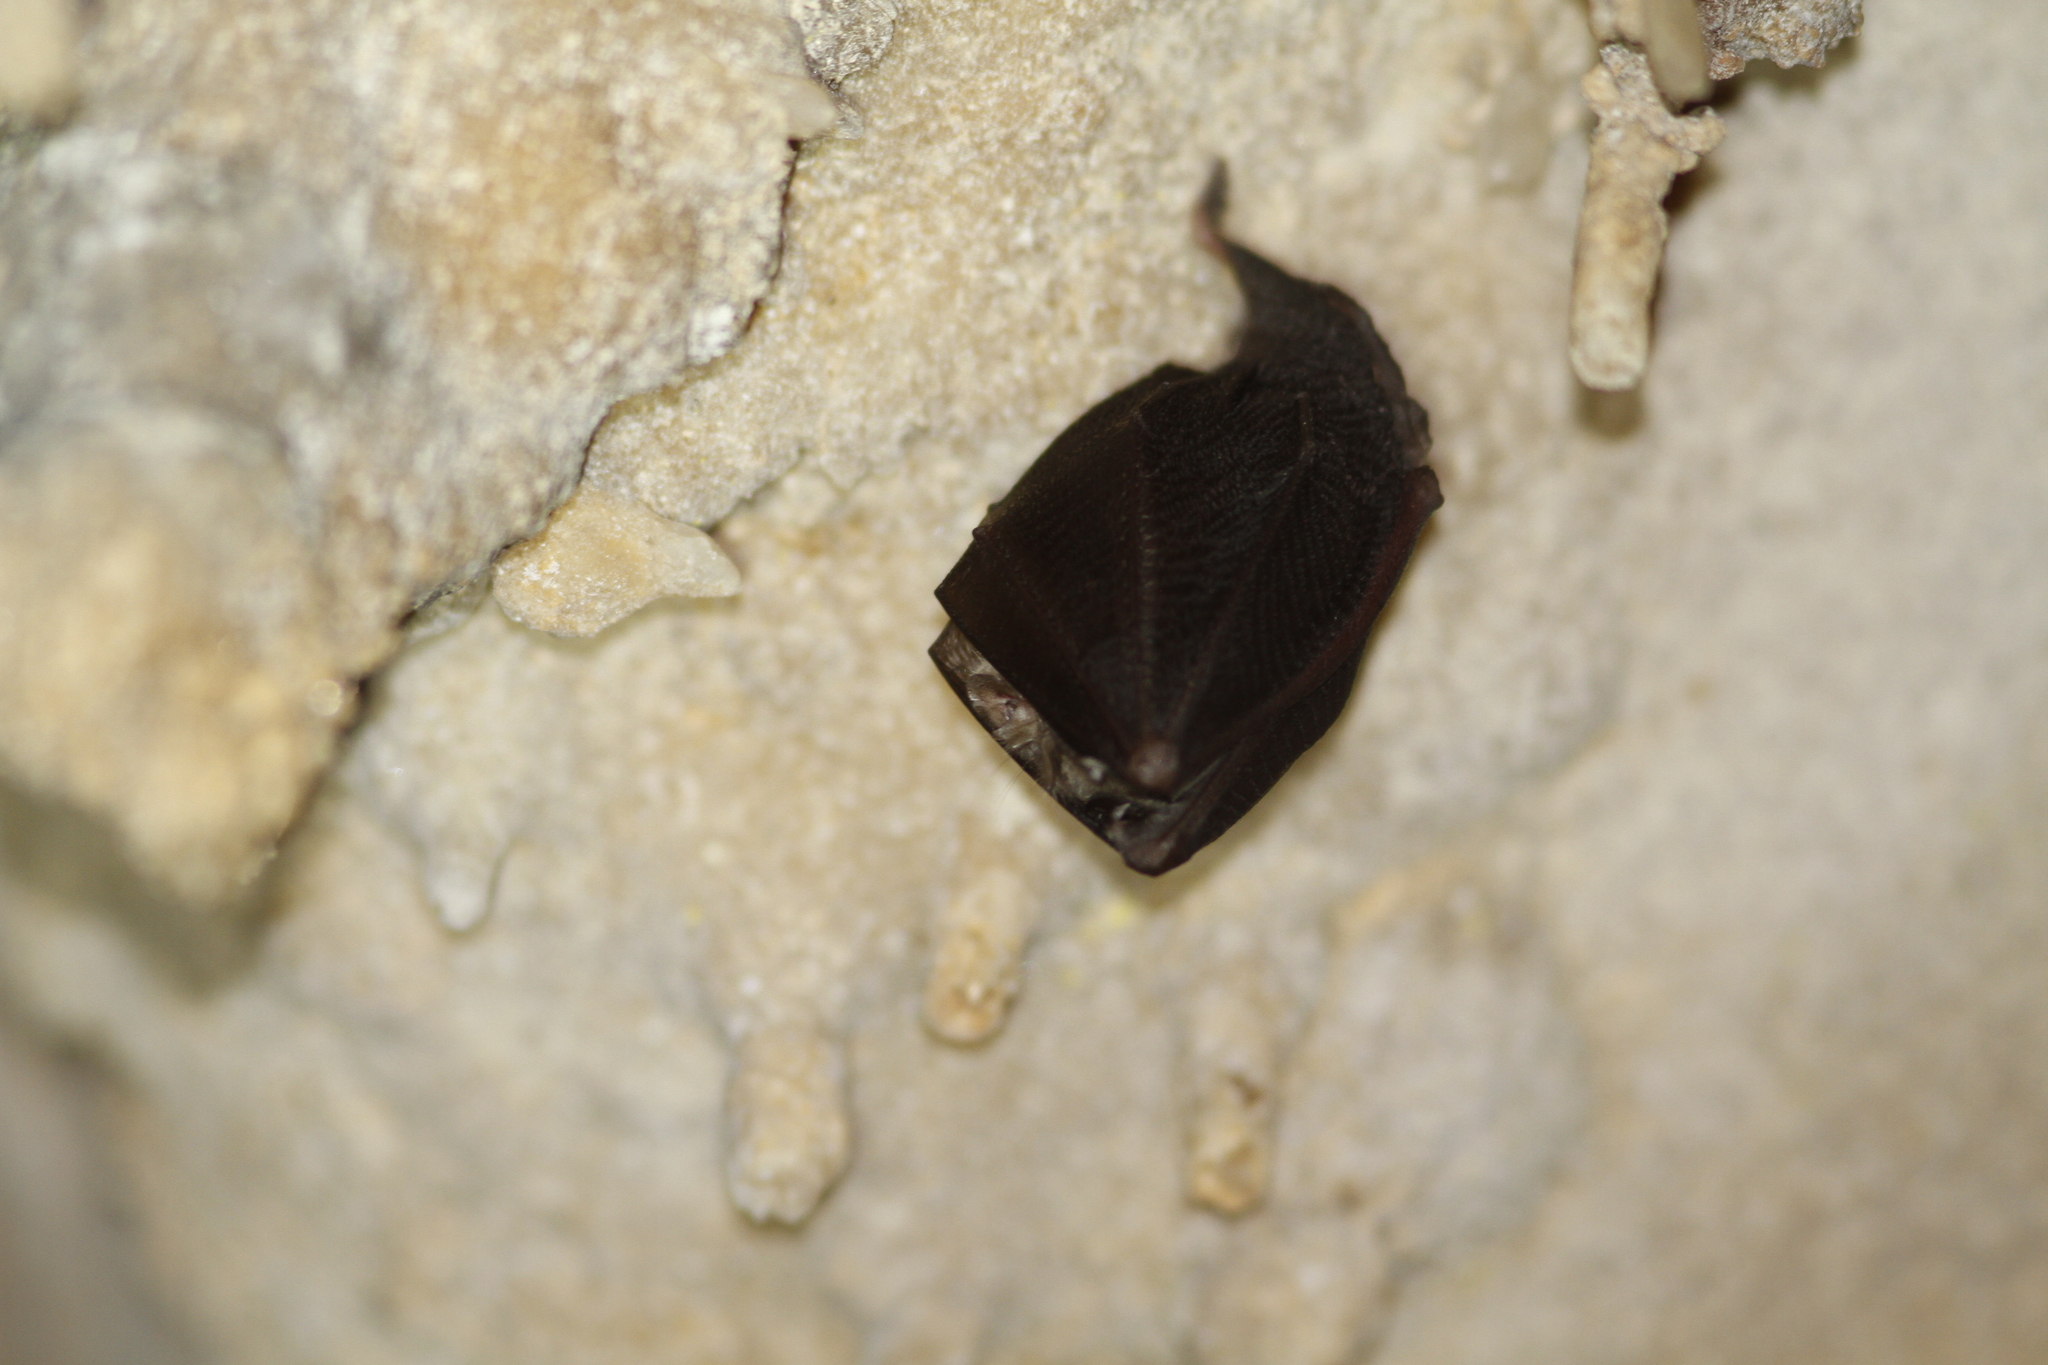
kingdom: Animalia
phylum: Chordata
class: Mammalia
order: Chiroptera
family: Rhinolophidae
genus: Rhinolophus
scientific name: Rhinolophus hipposideros
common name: Lesser horseshoe bat
